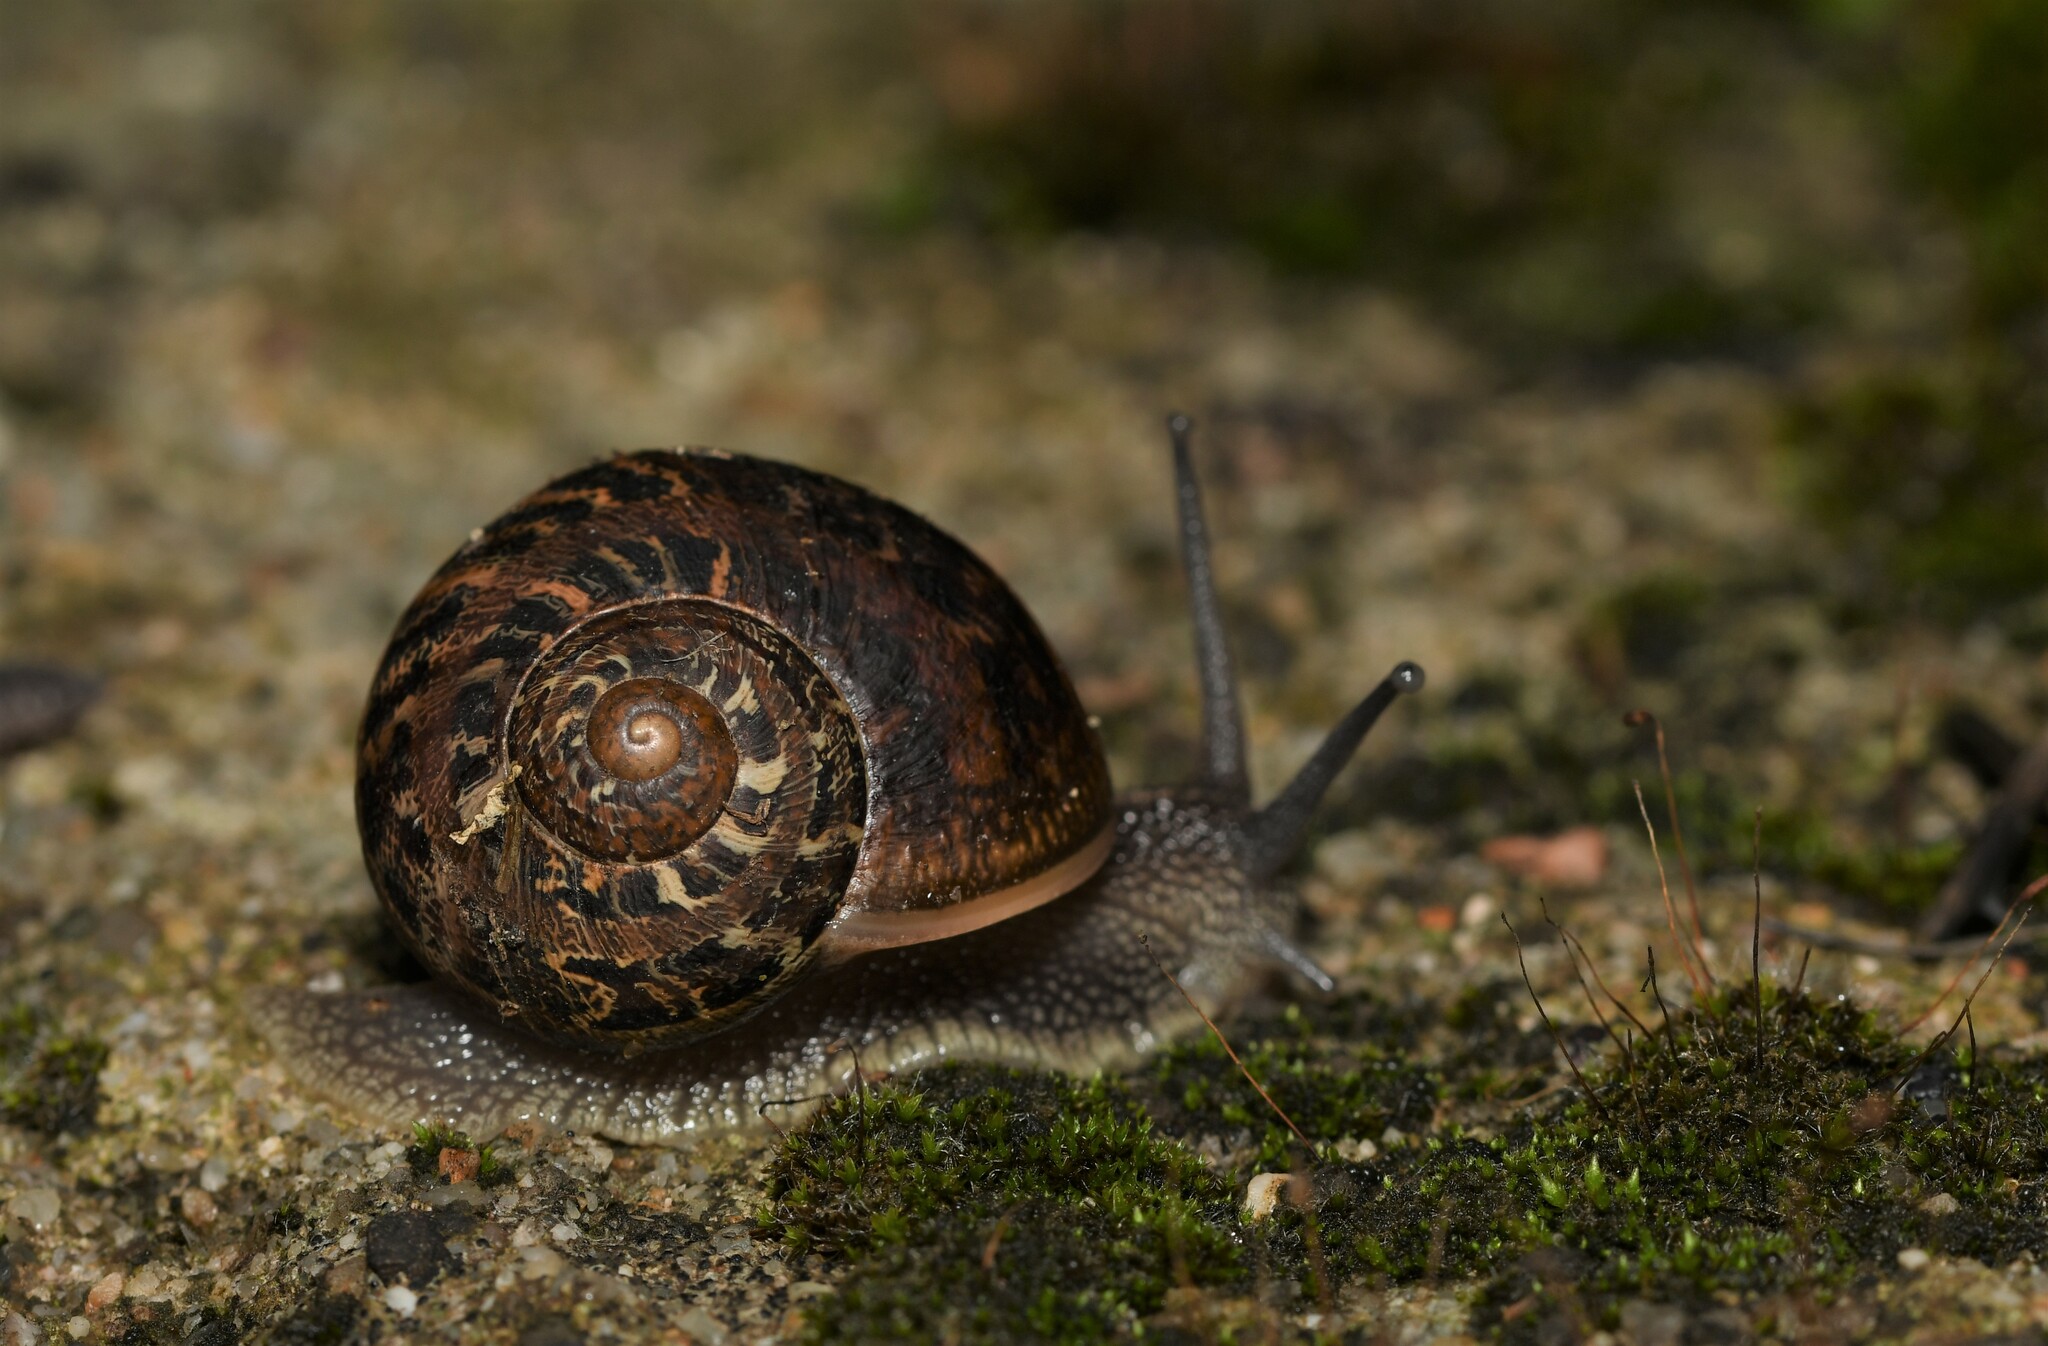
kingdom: Animalia
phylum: Mollusca
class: Gastropoda
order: Stylommatophora
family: Helicidae
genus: Cornu
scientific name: Cornu aspersum
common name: Brown garden snail
